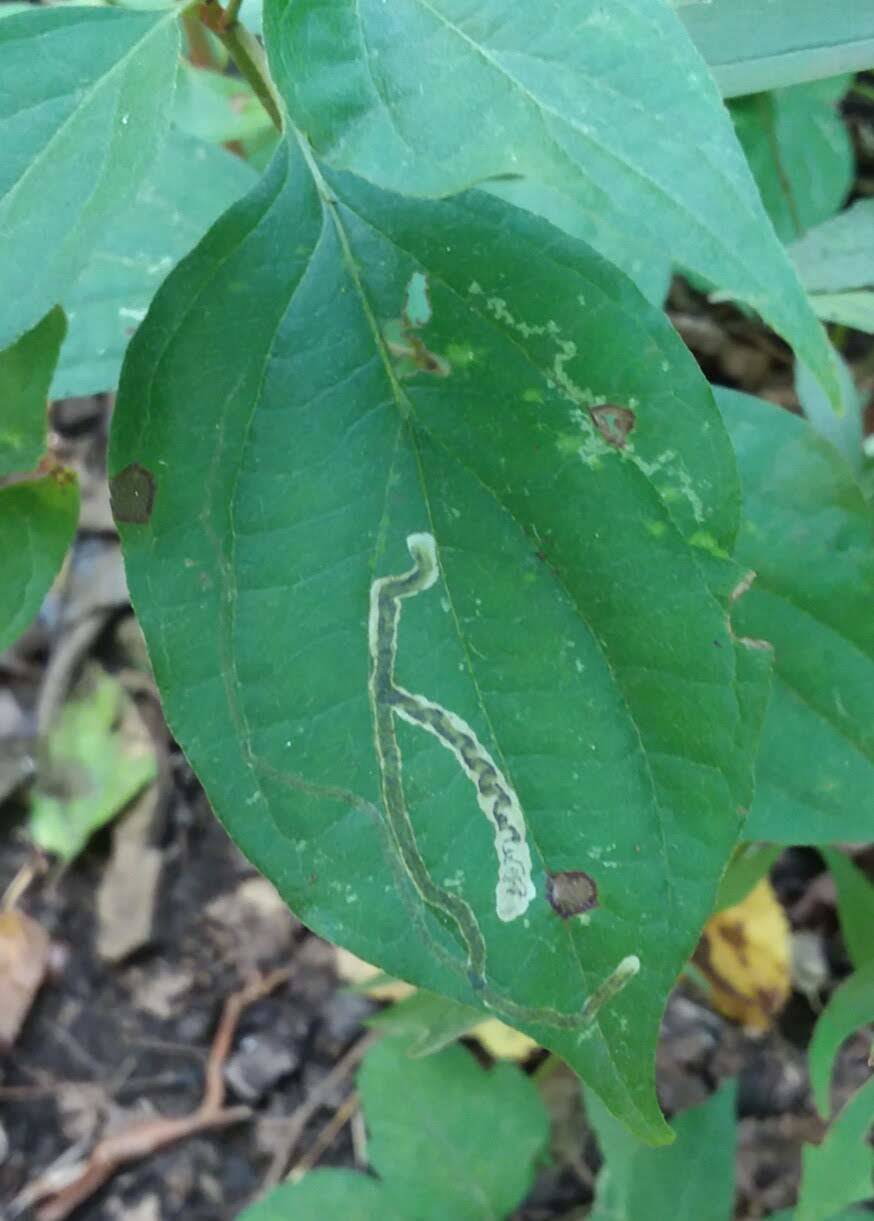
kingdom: Animalia
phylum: Arthropoda
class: Insecta
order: Diptera
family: Agromyzidae
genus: Phytomyza
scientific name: Phytomyza agromyzina
